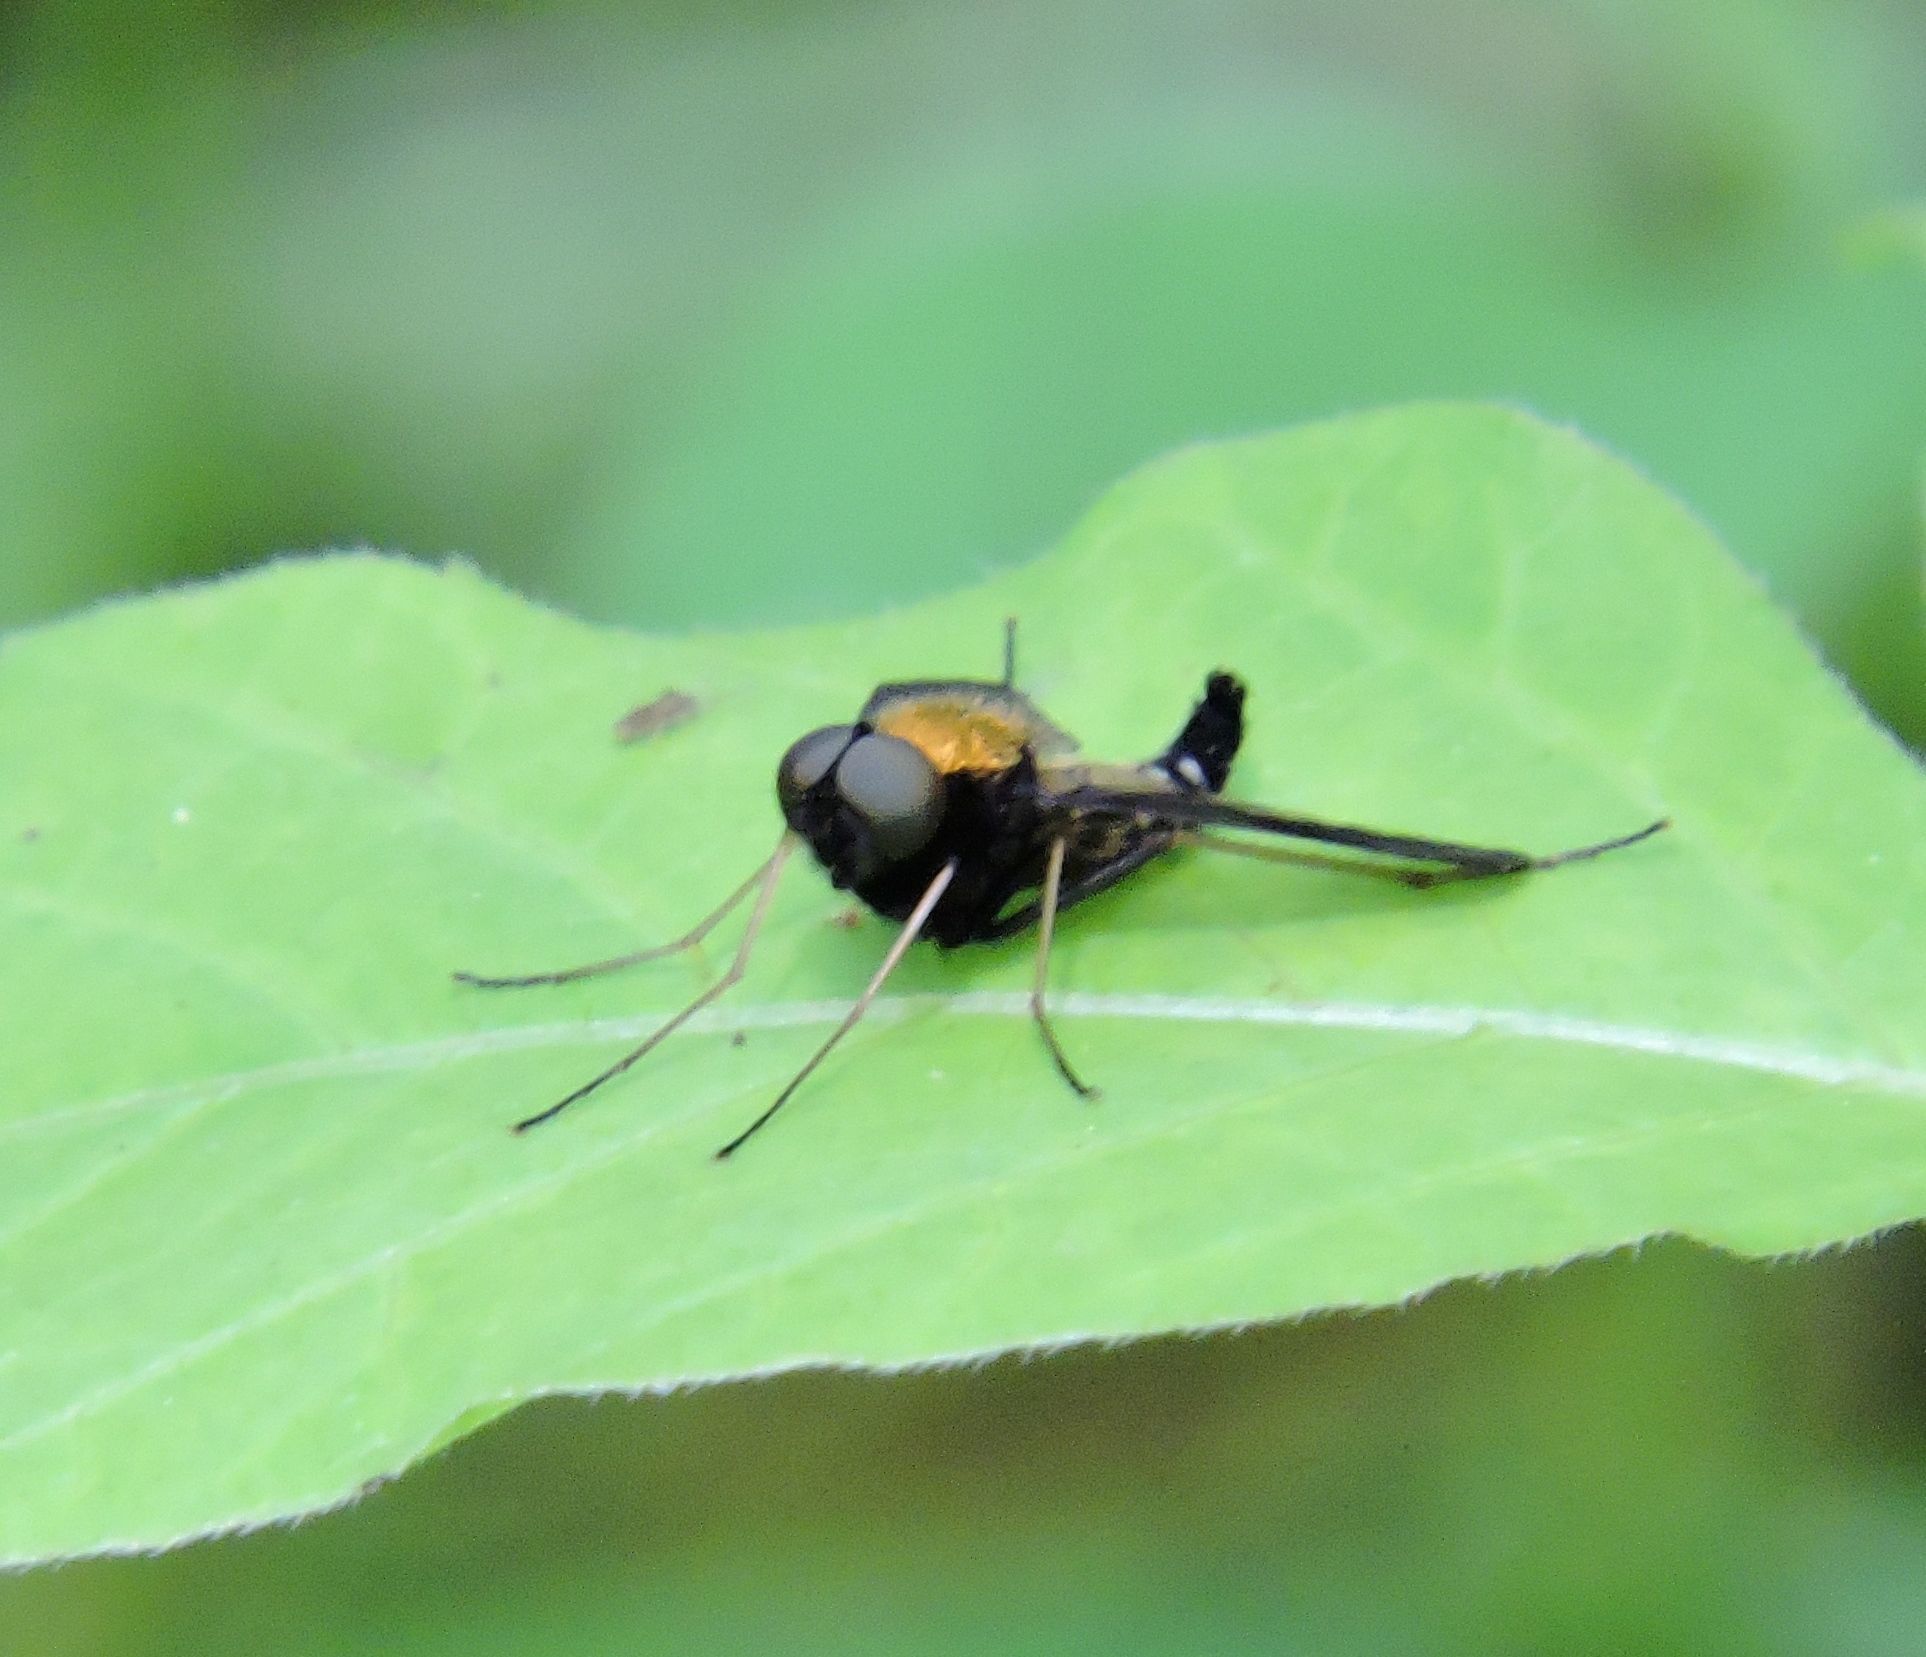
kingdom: Animalia
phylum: Arthropoda
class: Insecta
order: Diptera
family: Rhagionidae
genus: Chrysopilus
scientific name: Chrysopilus thoracicus
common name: Golden-backed snipe fly
